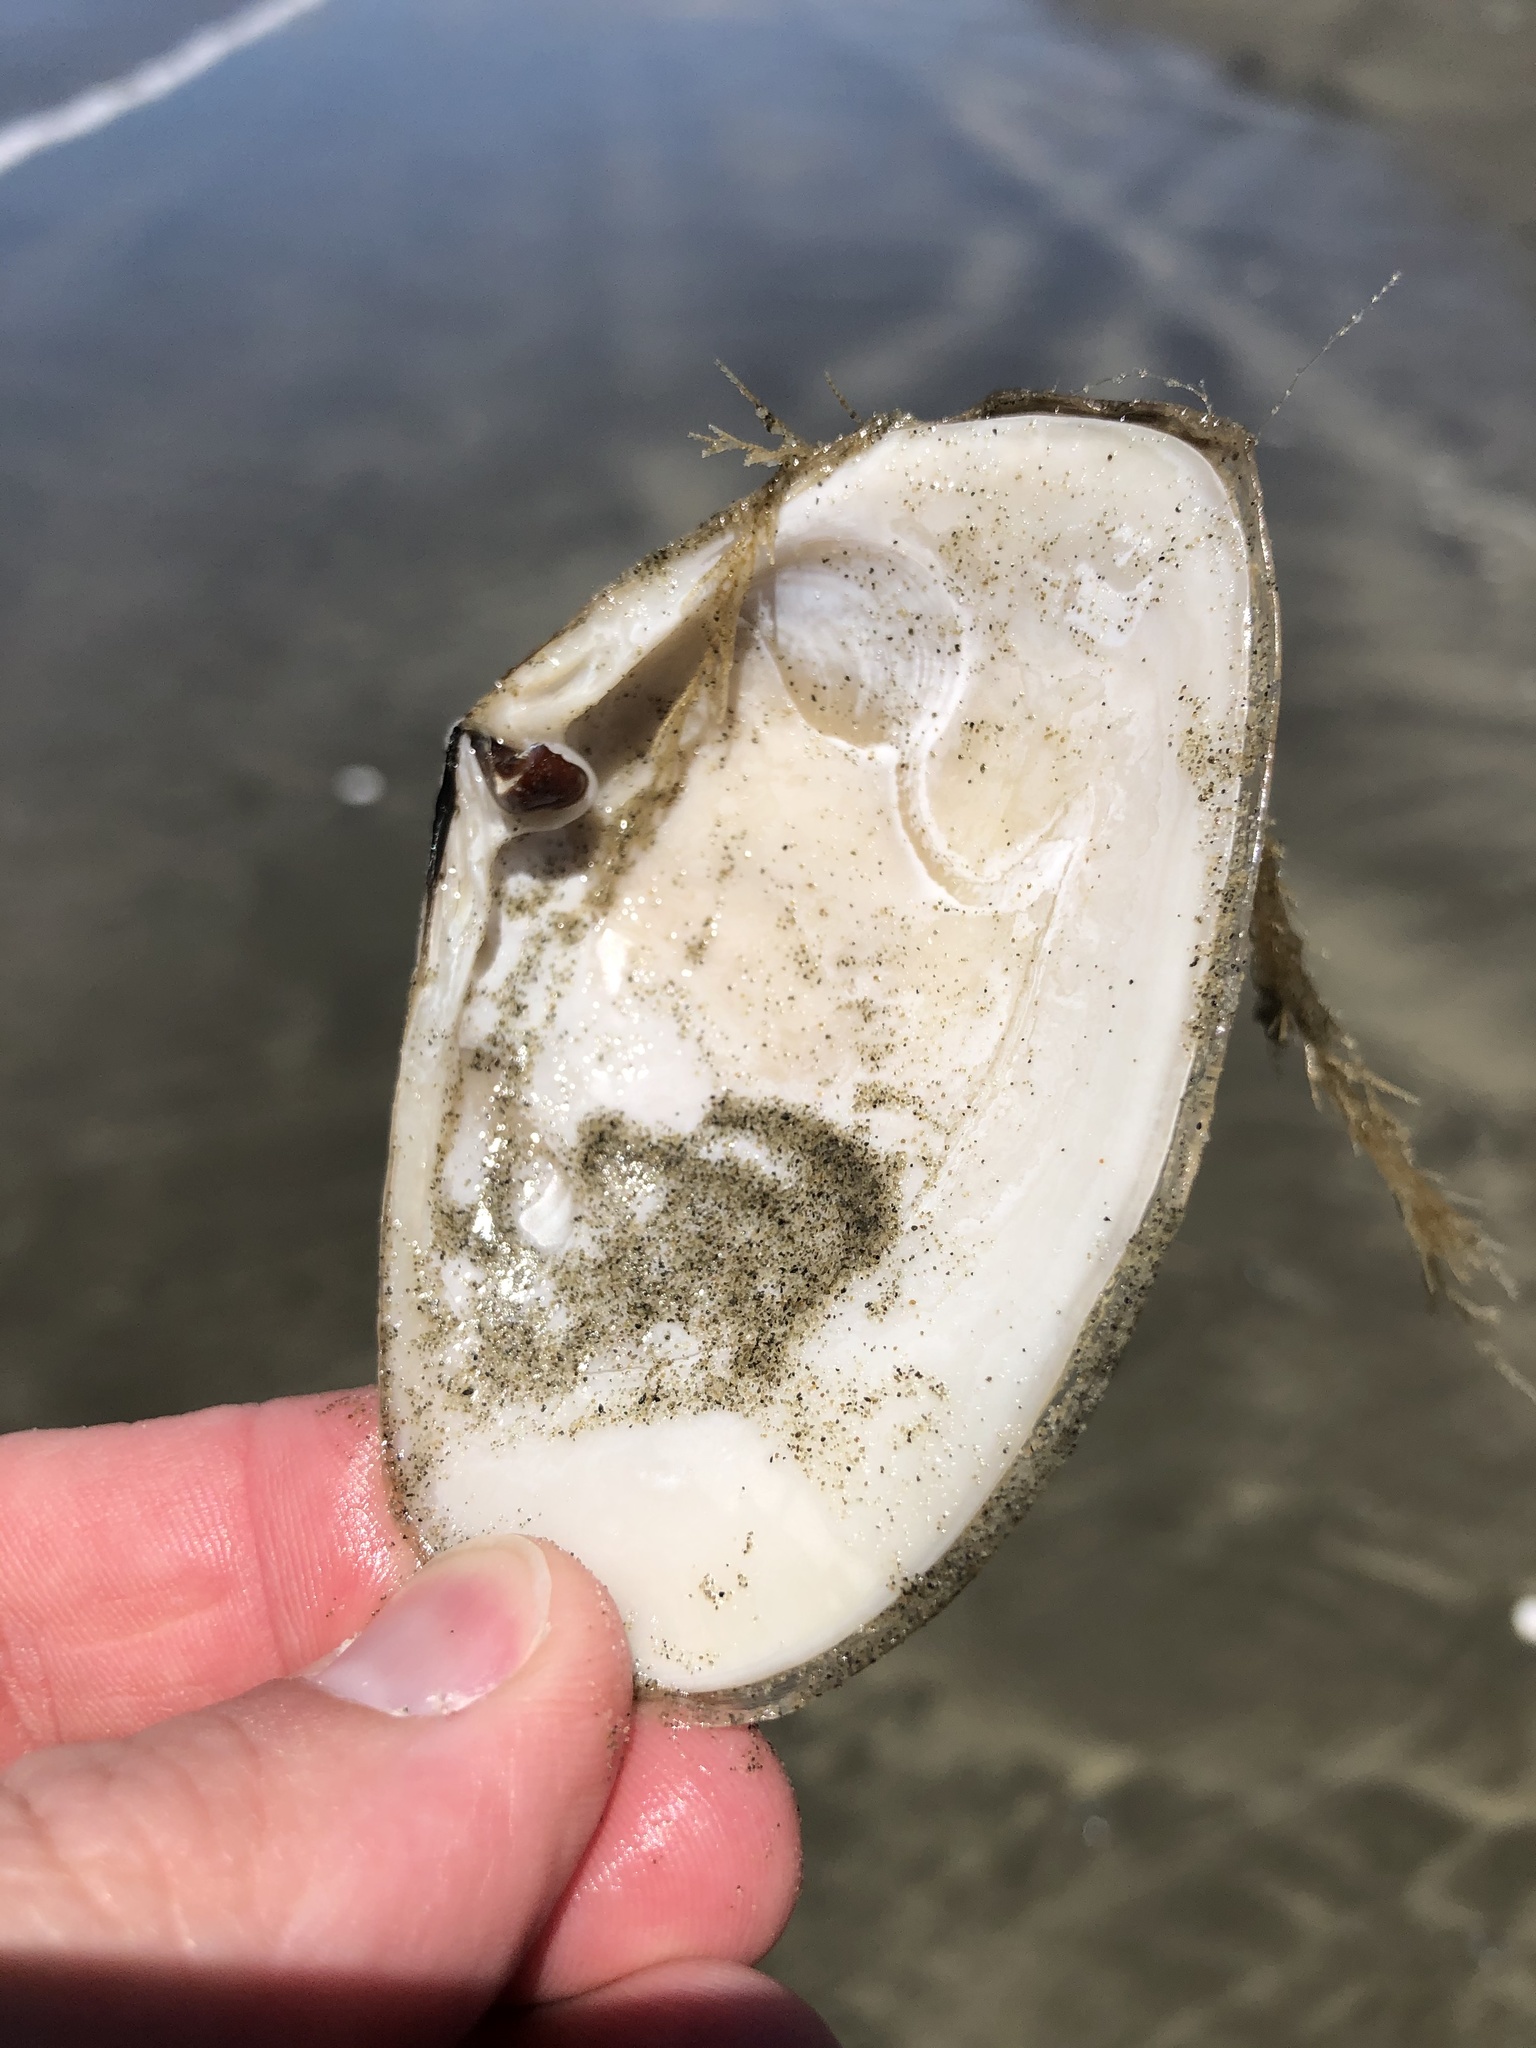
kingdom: Animalia
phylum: Mollusca
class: Bivalvia
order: Venerida
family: Mesodesmatidae
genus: Paphies
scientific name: Paphies donacina
